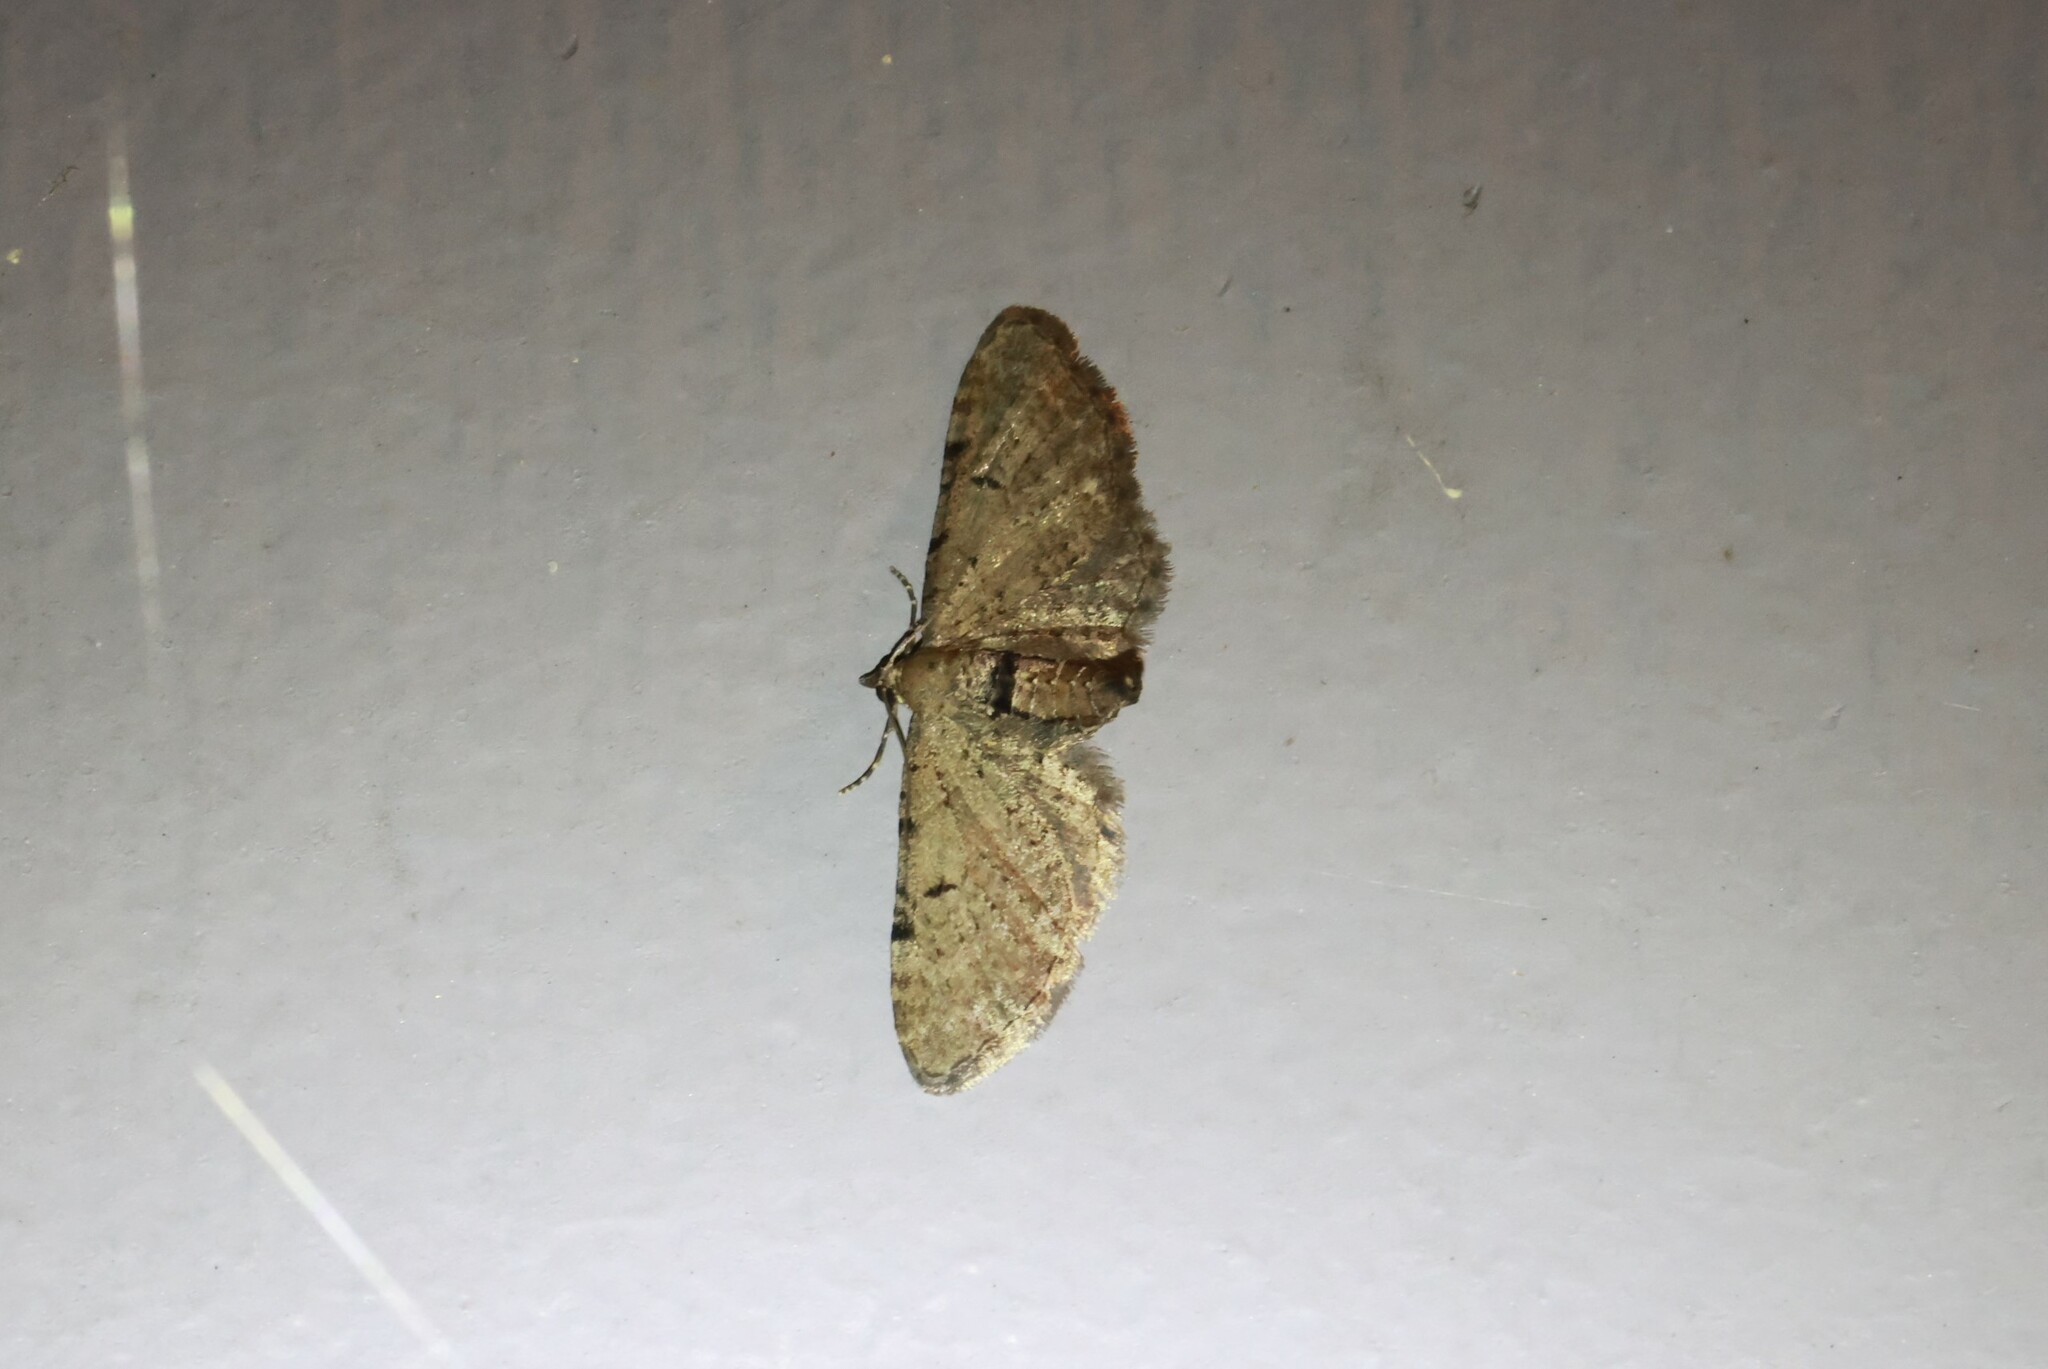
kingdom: Animalia
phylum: Arthropoda
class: Insecta
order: Lepidoptera
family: Geometridae
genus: Eupithecia
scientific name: Eupithecia absinthiata
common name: Wormwood pug
